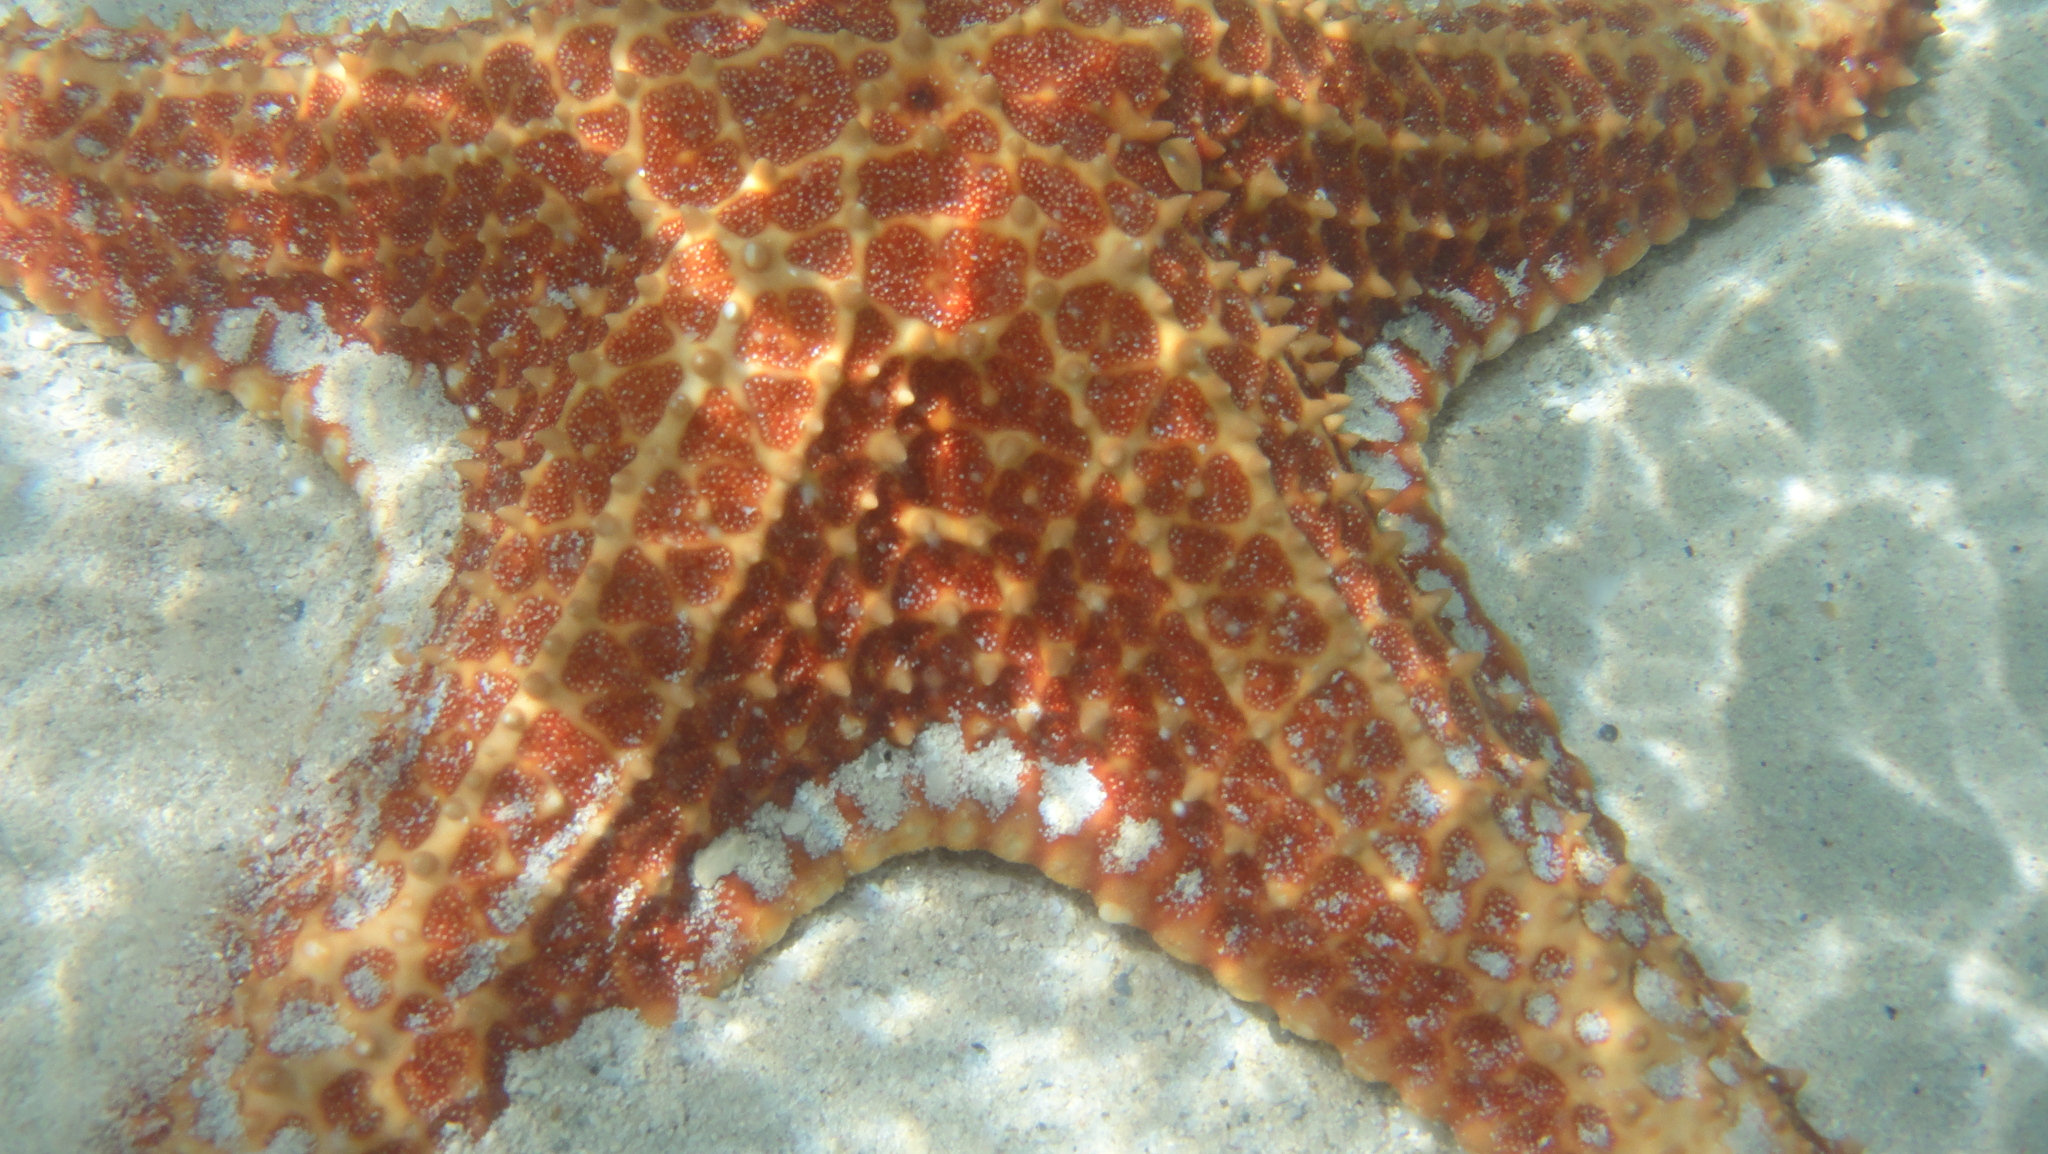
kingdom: Animalia
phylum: Echinodermata
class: Asteroidea
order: Valvatida
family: Oreasteridae
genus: Oreaster
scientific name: Oreaster reticulatus
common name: Cushion sea star
